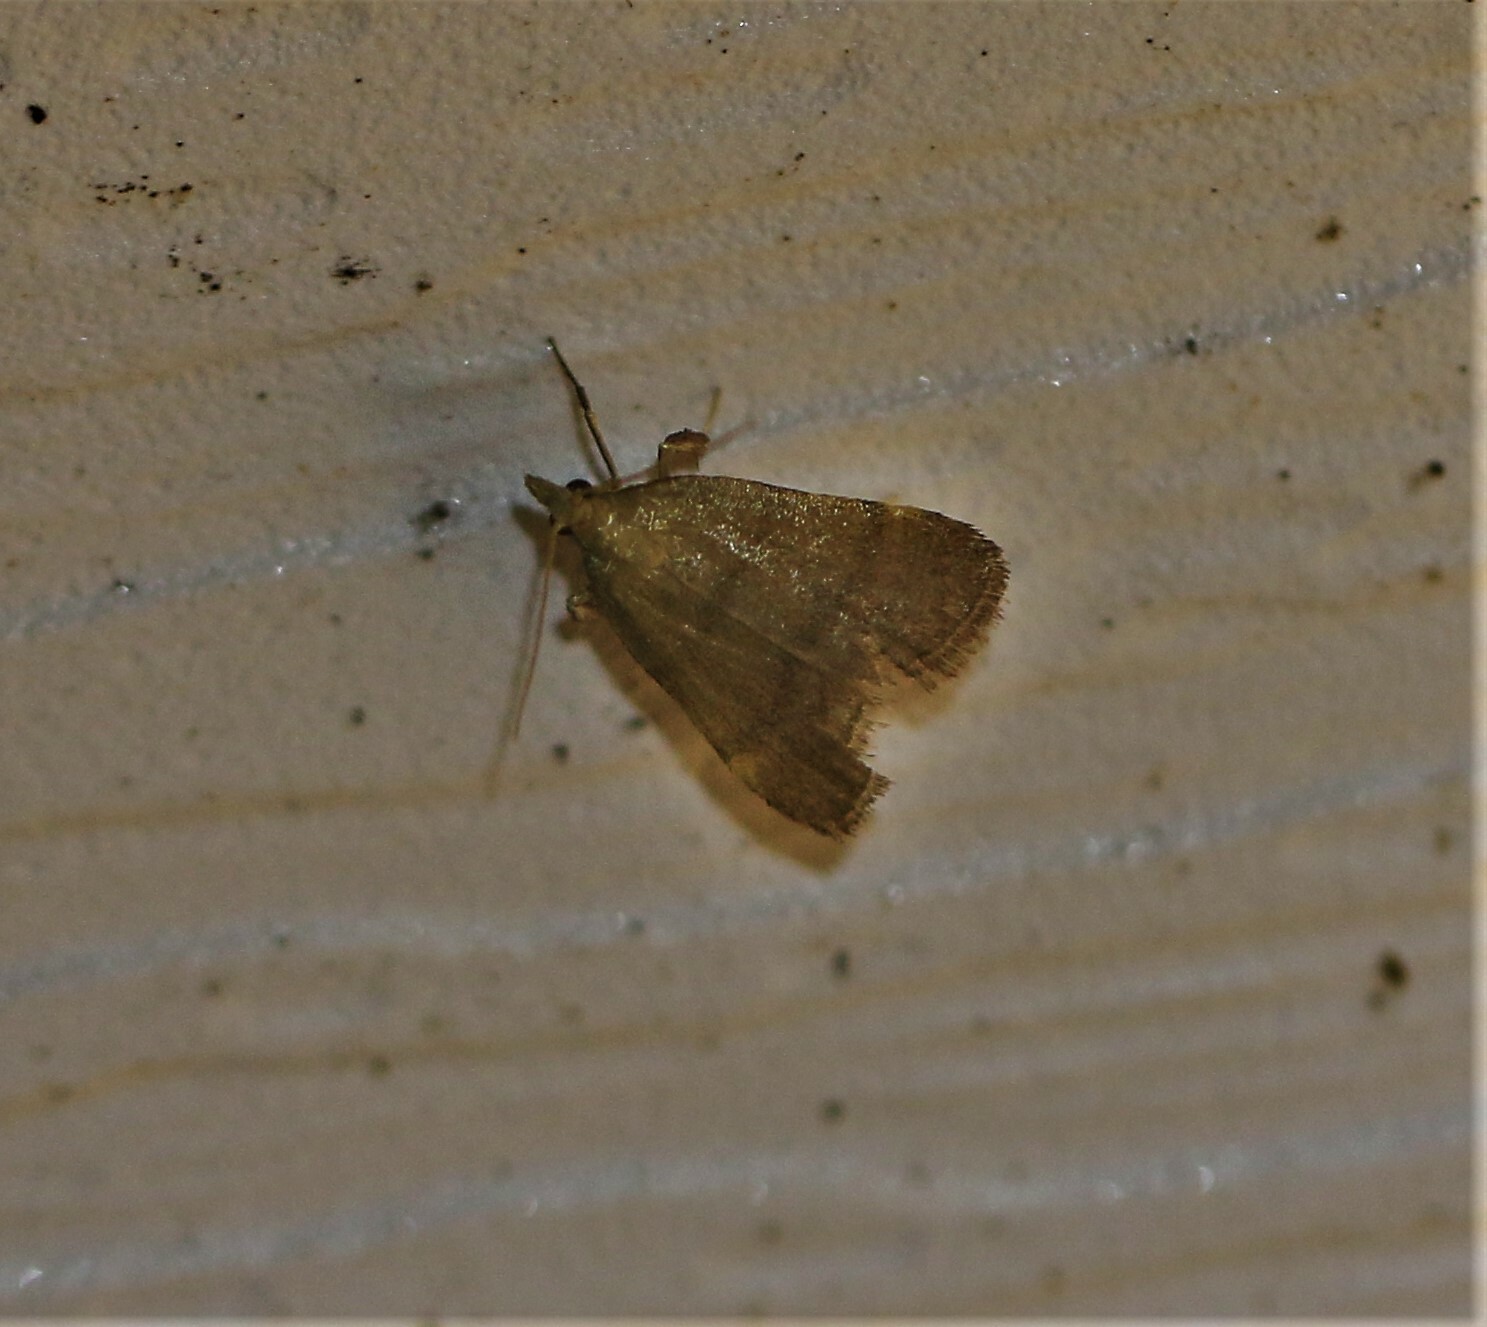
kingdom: Animalia
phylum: Arthropoda
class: Insecta
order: Lepidoptera
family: Pyralidae
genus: Condylolomia
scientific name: Condylolomia participialis
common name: Drab condylolomia moth
